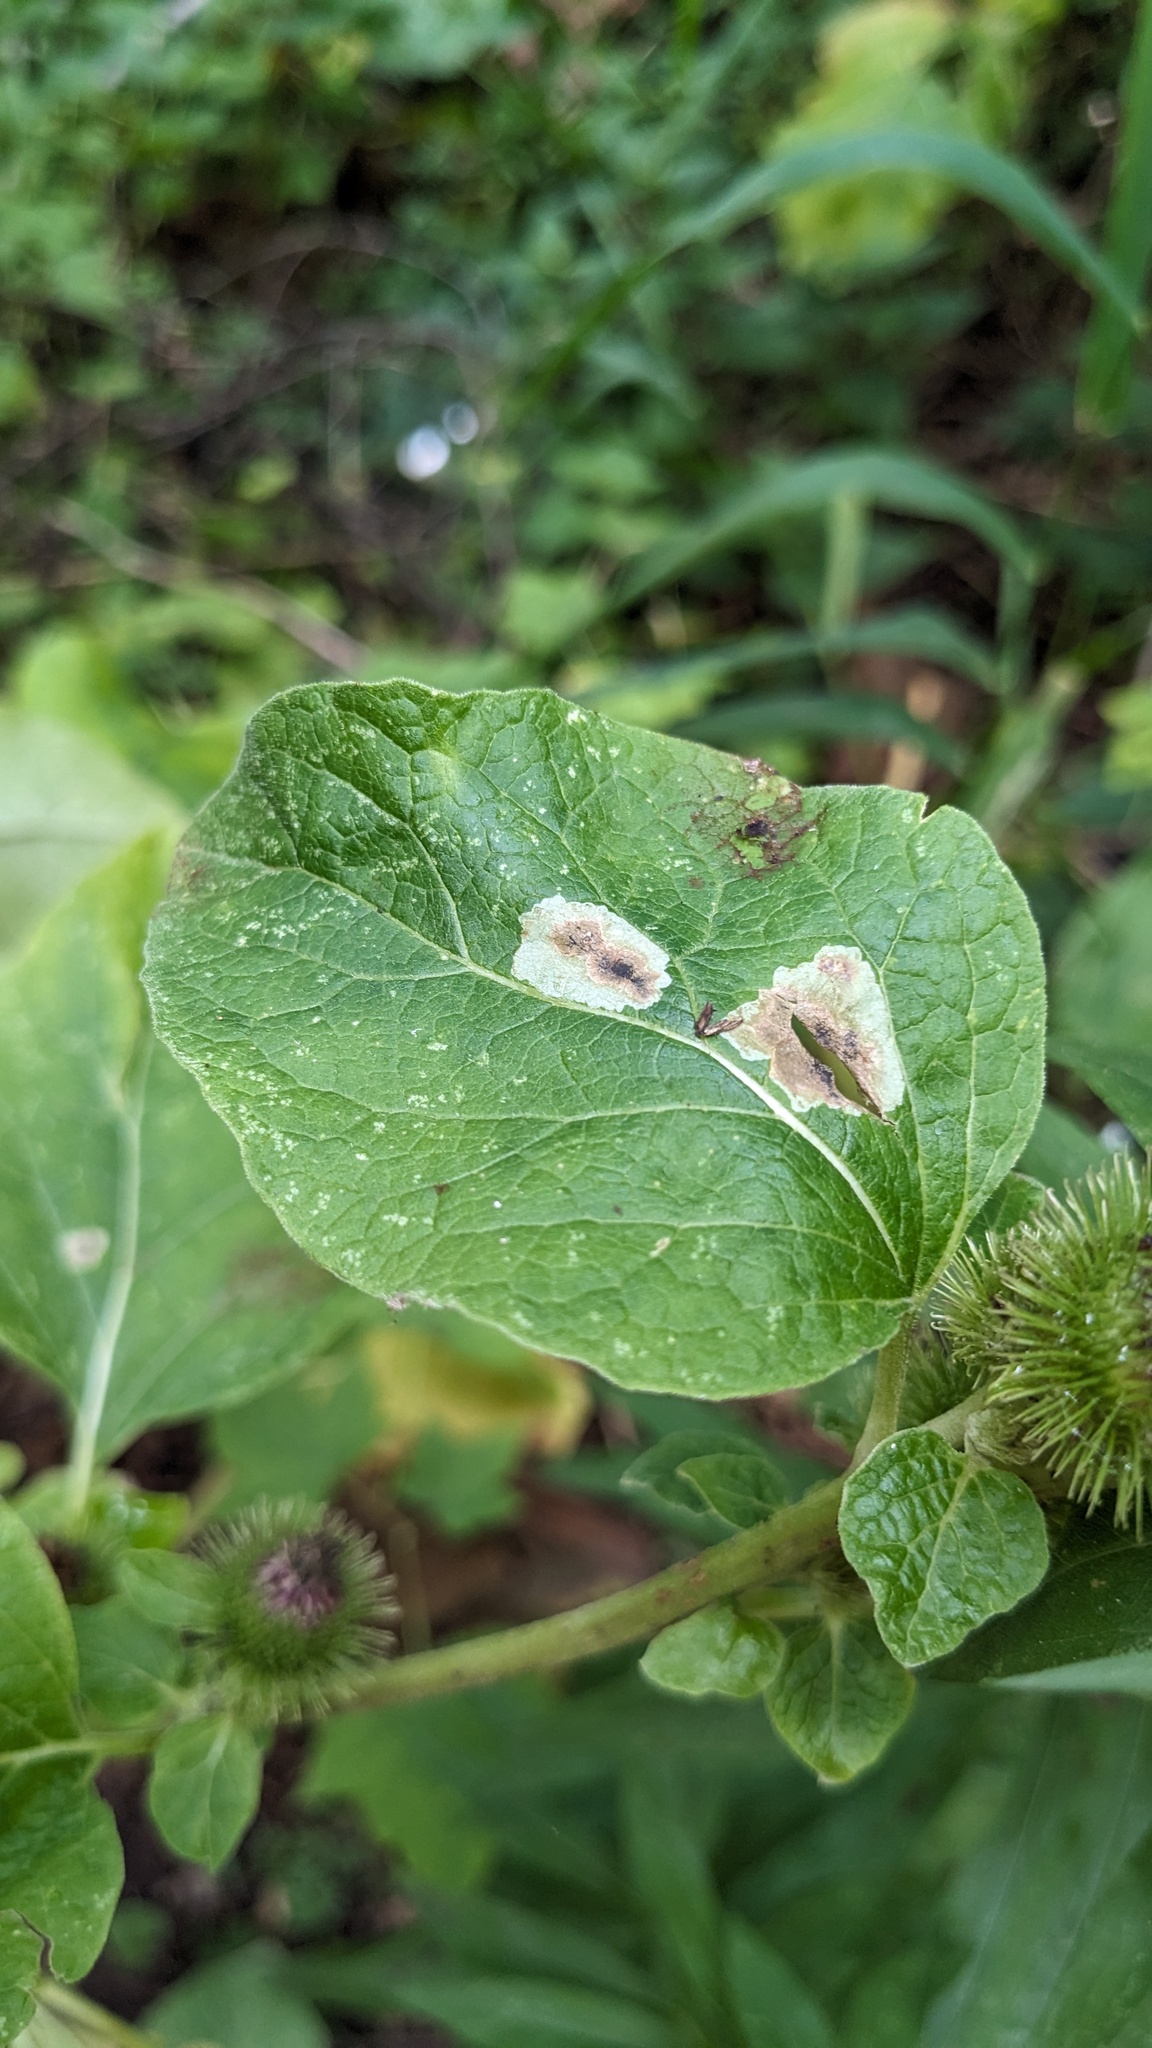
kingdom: Animalia
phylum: Arthropoda
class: Insecta
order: Diptera
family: Agromyzidae
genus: Calycomyza
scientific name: Calycomyza flavinotum
